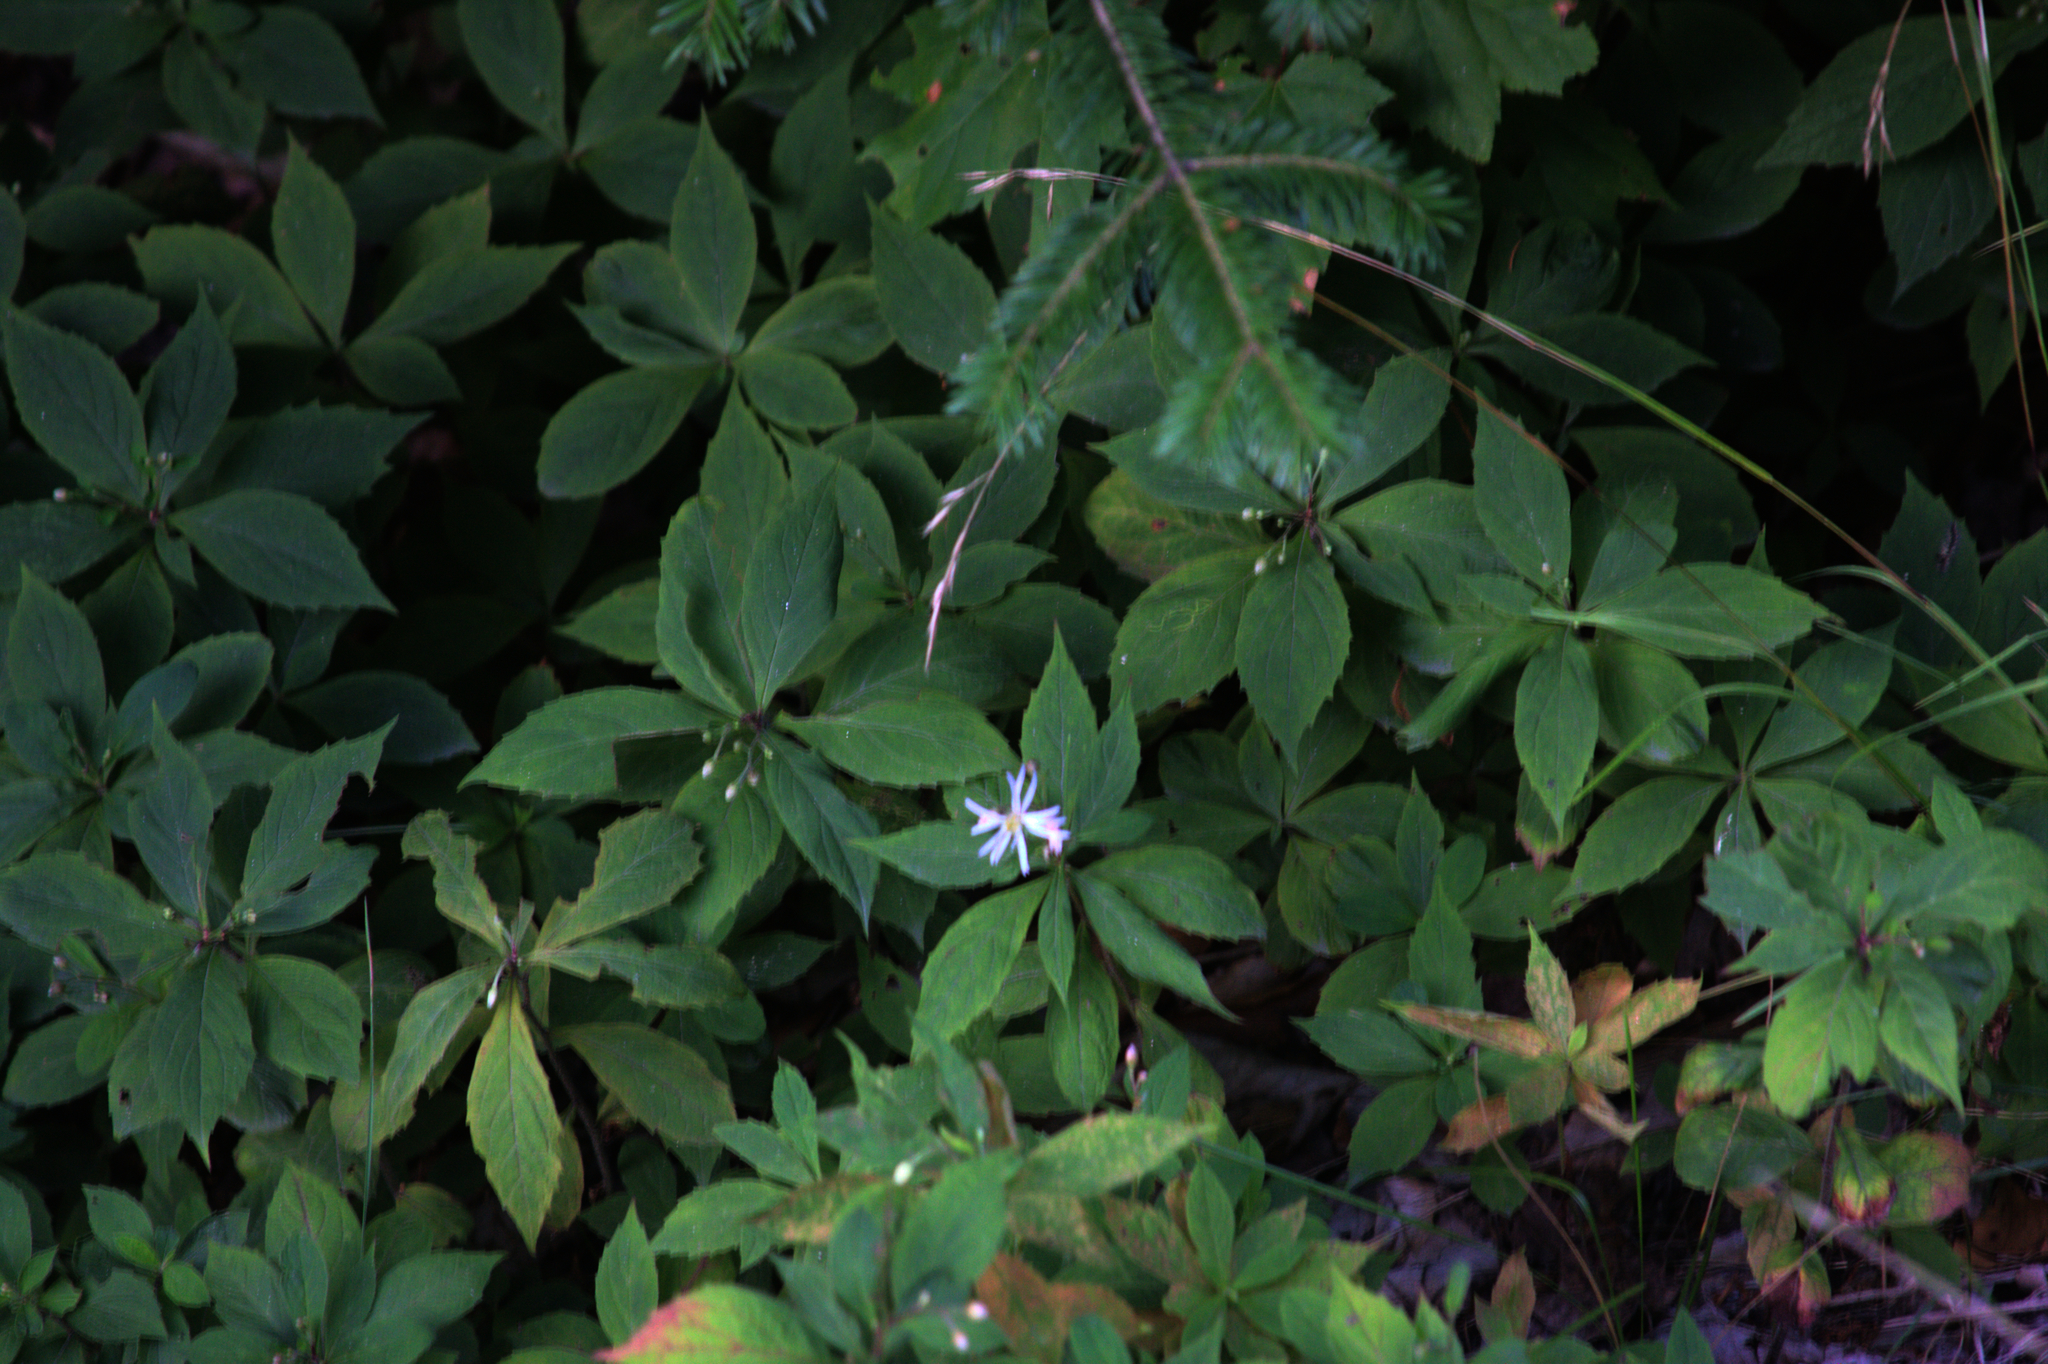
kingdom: Plantae
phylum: Tracheophyta
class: Magnoliopsida
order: Asterales
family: Asteraceae
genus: Oclemena
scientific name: Oclemena acuminata
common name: Mountain aster
